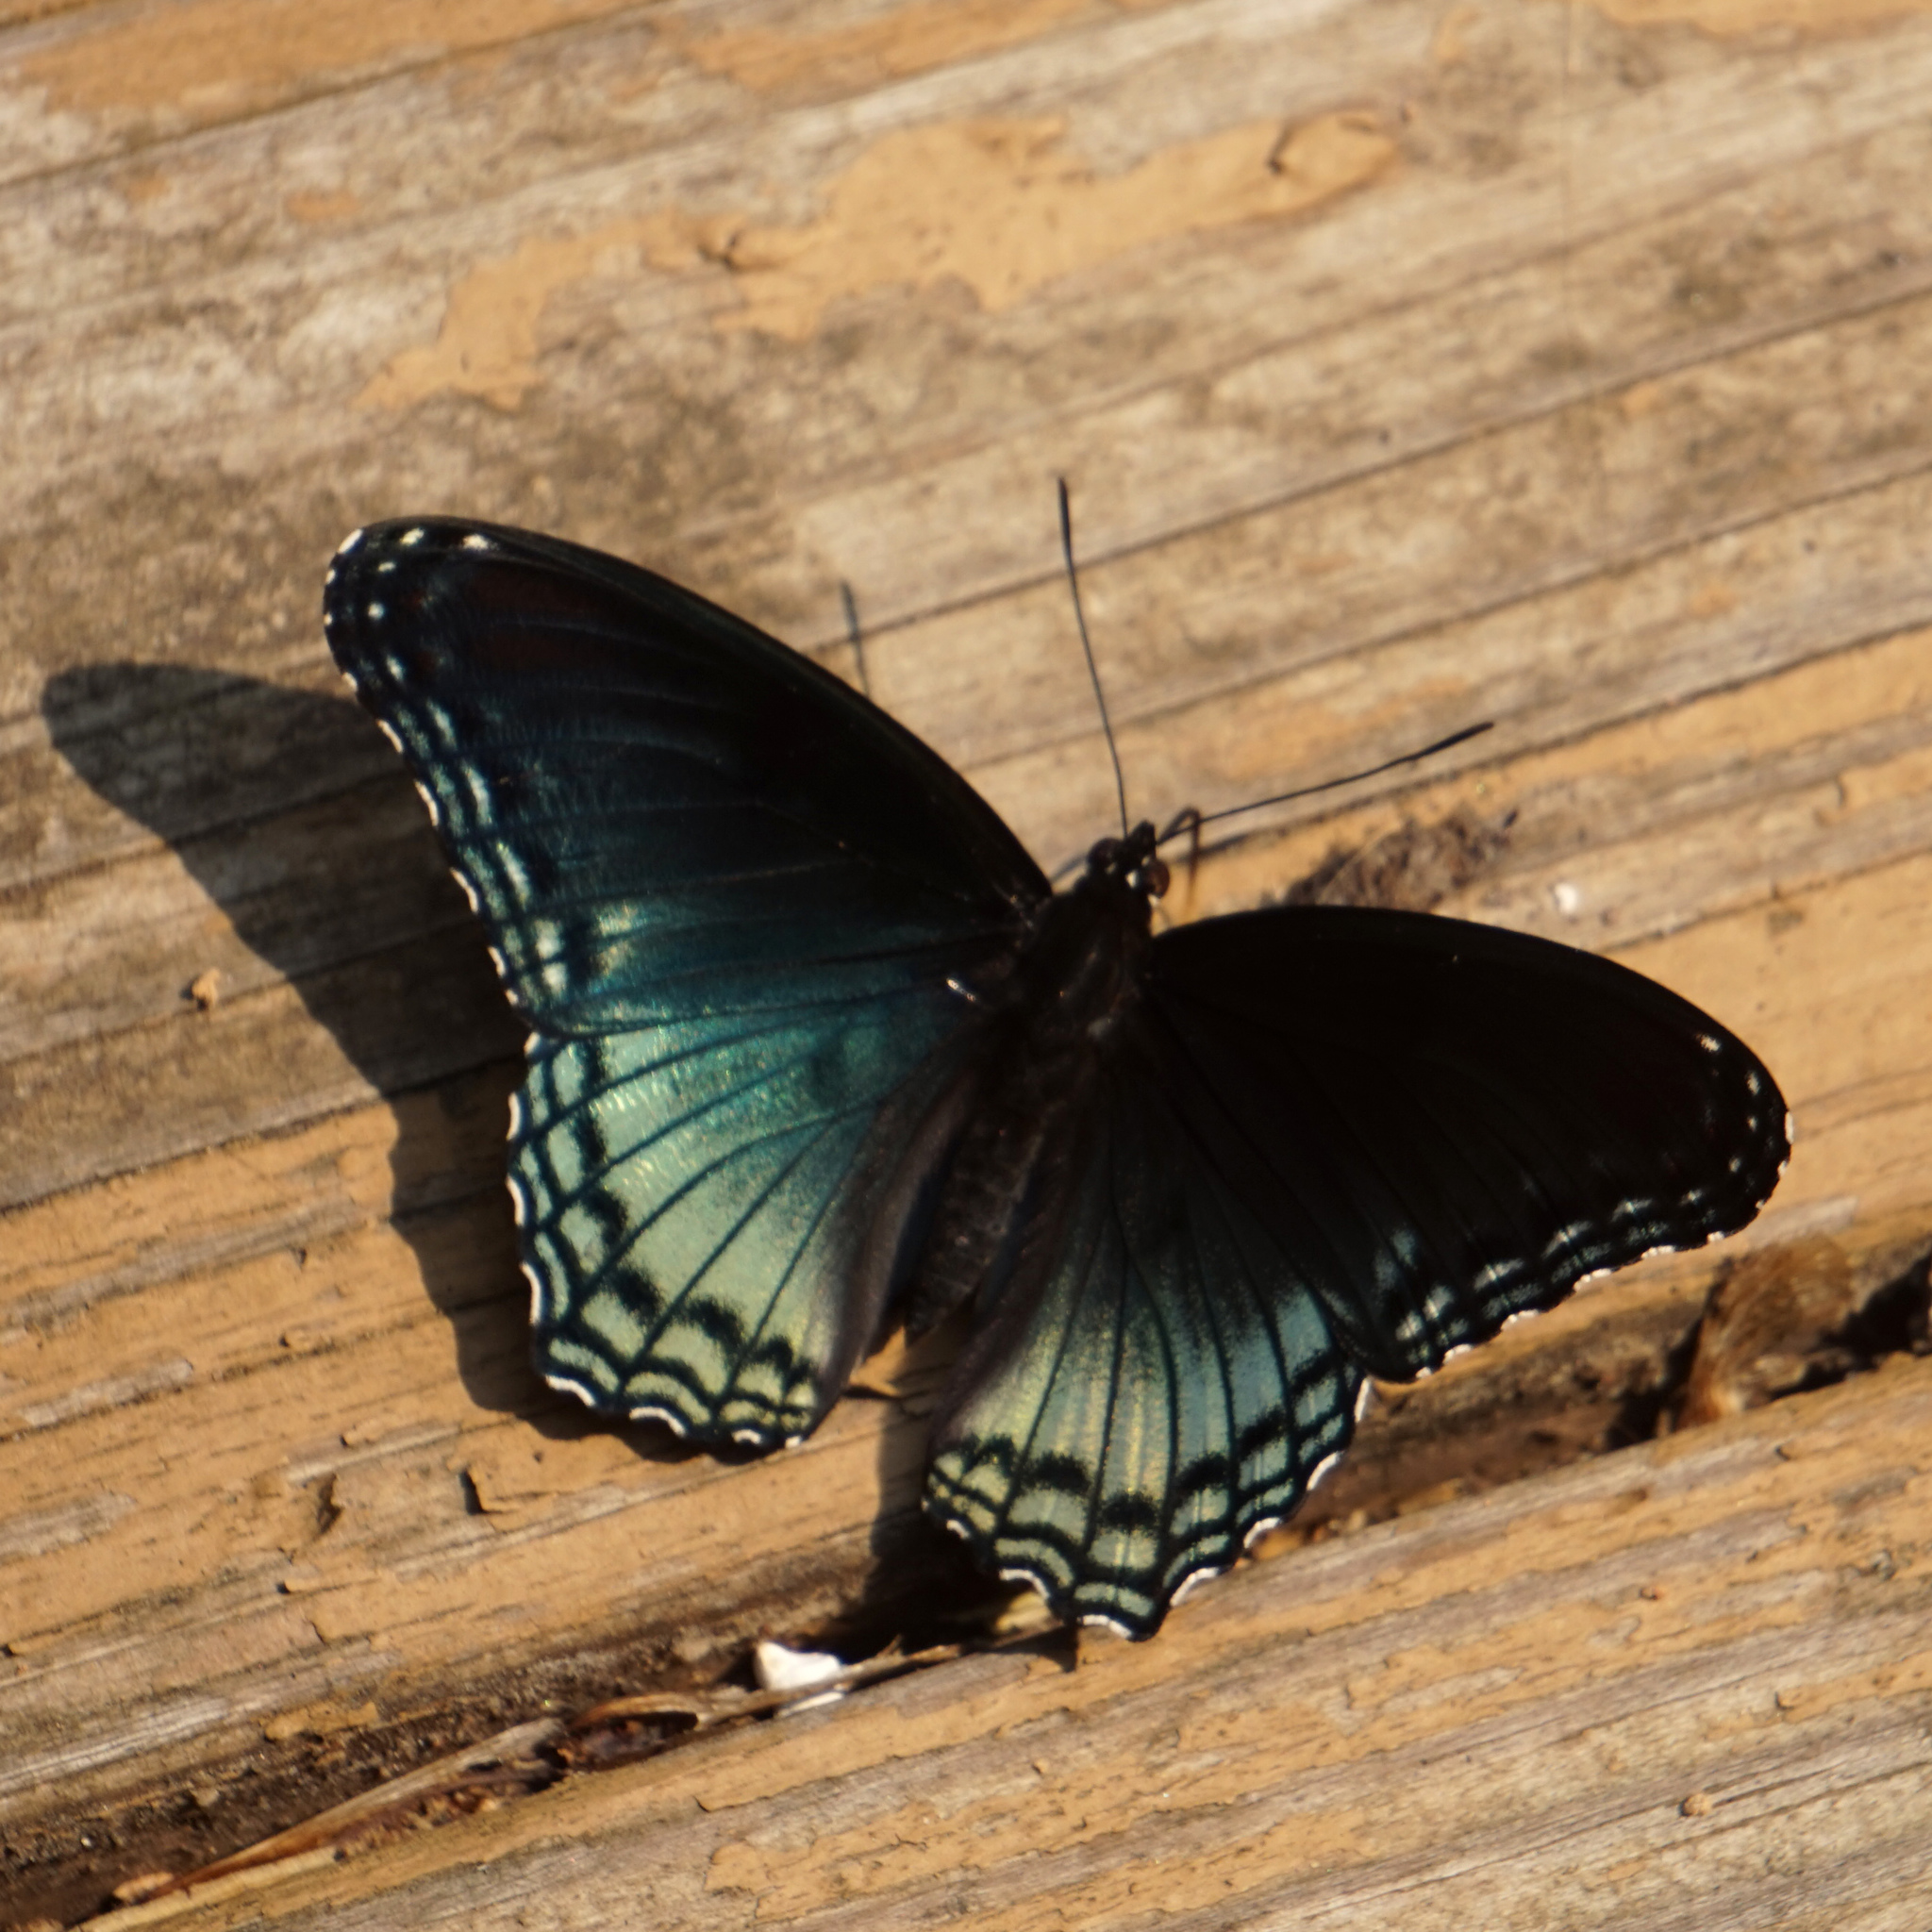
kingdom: Animalia
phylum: Arthropoda
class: Insecta
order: Lepidoptera
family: Nymphalidae
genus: Limenitis
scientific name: Limenitis arthemis
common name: Red-spotted admiral
